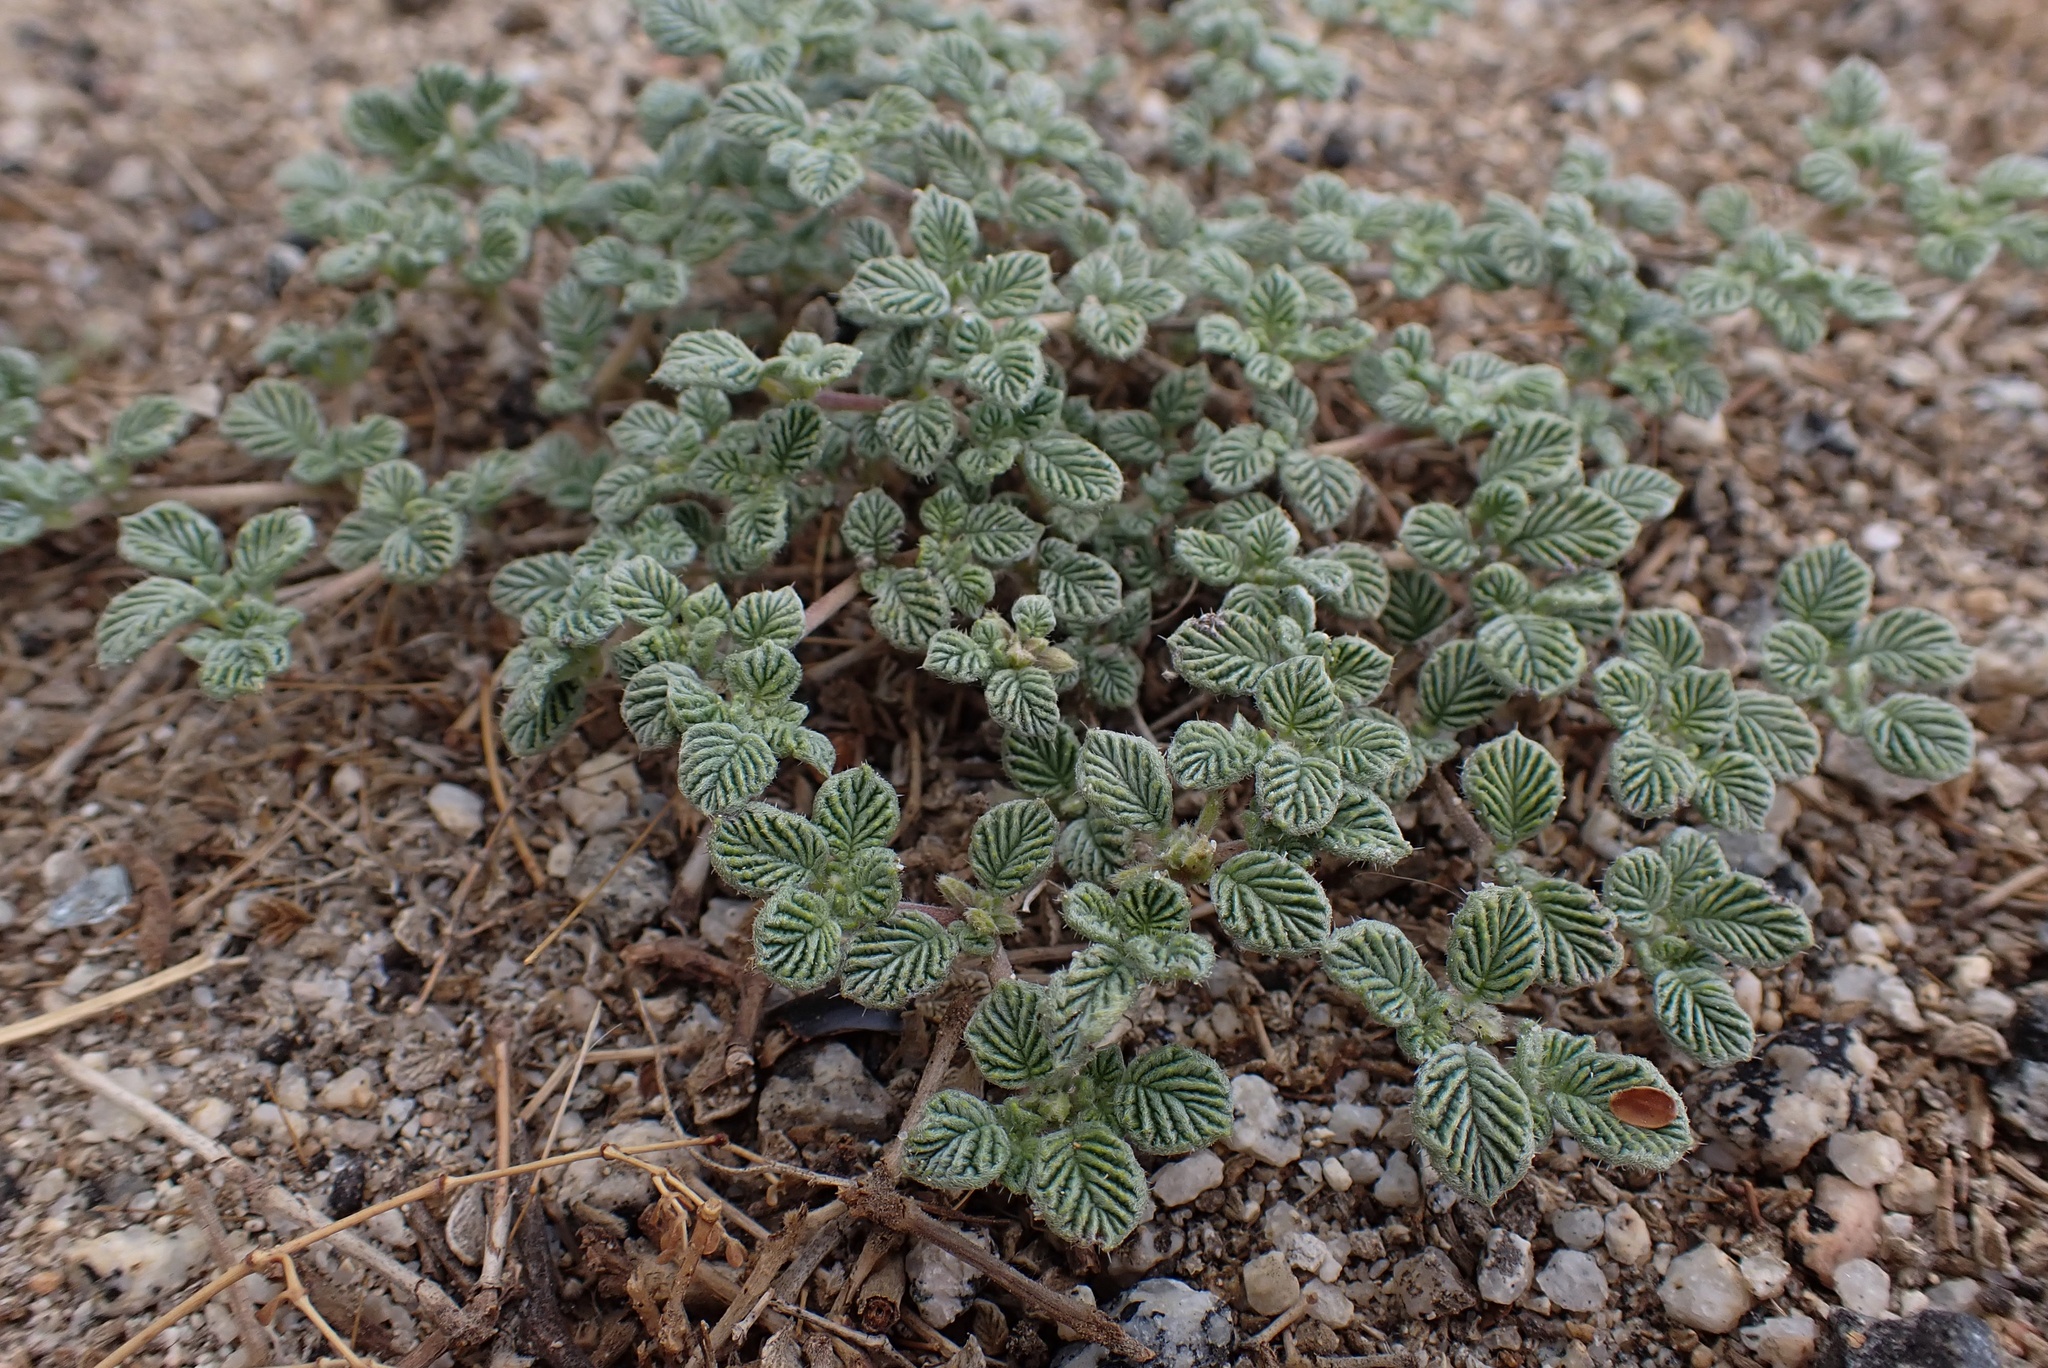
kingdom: Plantae
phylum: Tracheophyta
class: Magnoliopsida
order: Boraginales
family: Ehretiaceae
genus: Tiquilia
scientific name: Tiquilia plicata
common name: Fan-leaf tiquilia
